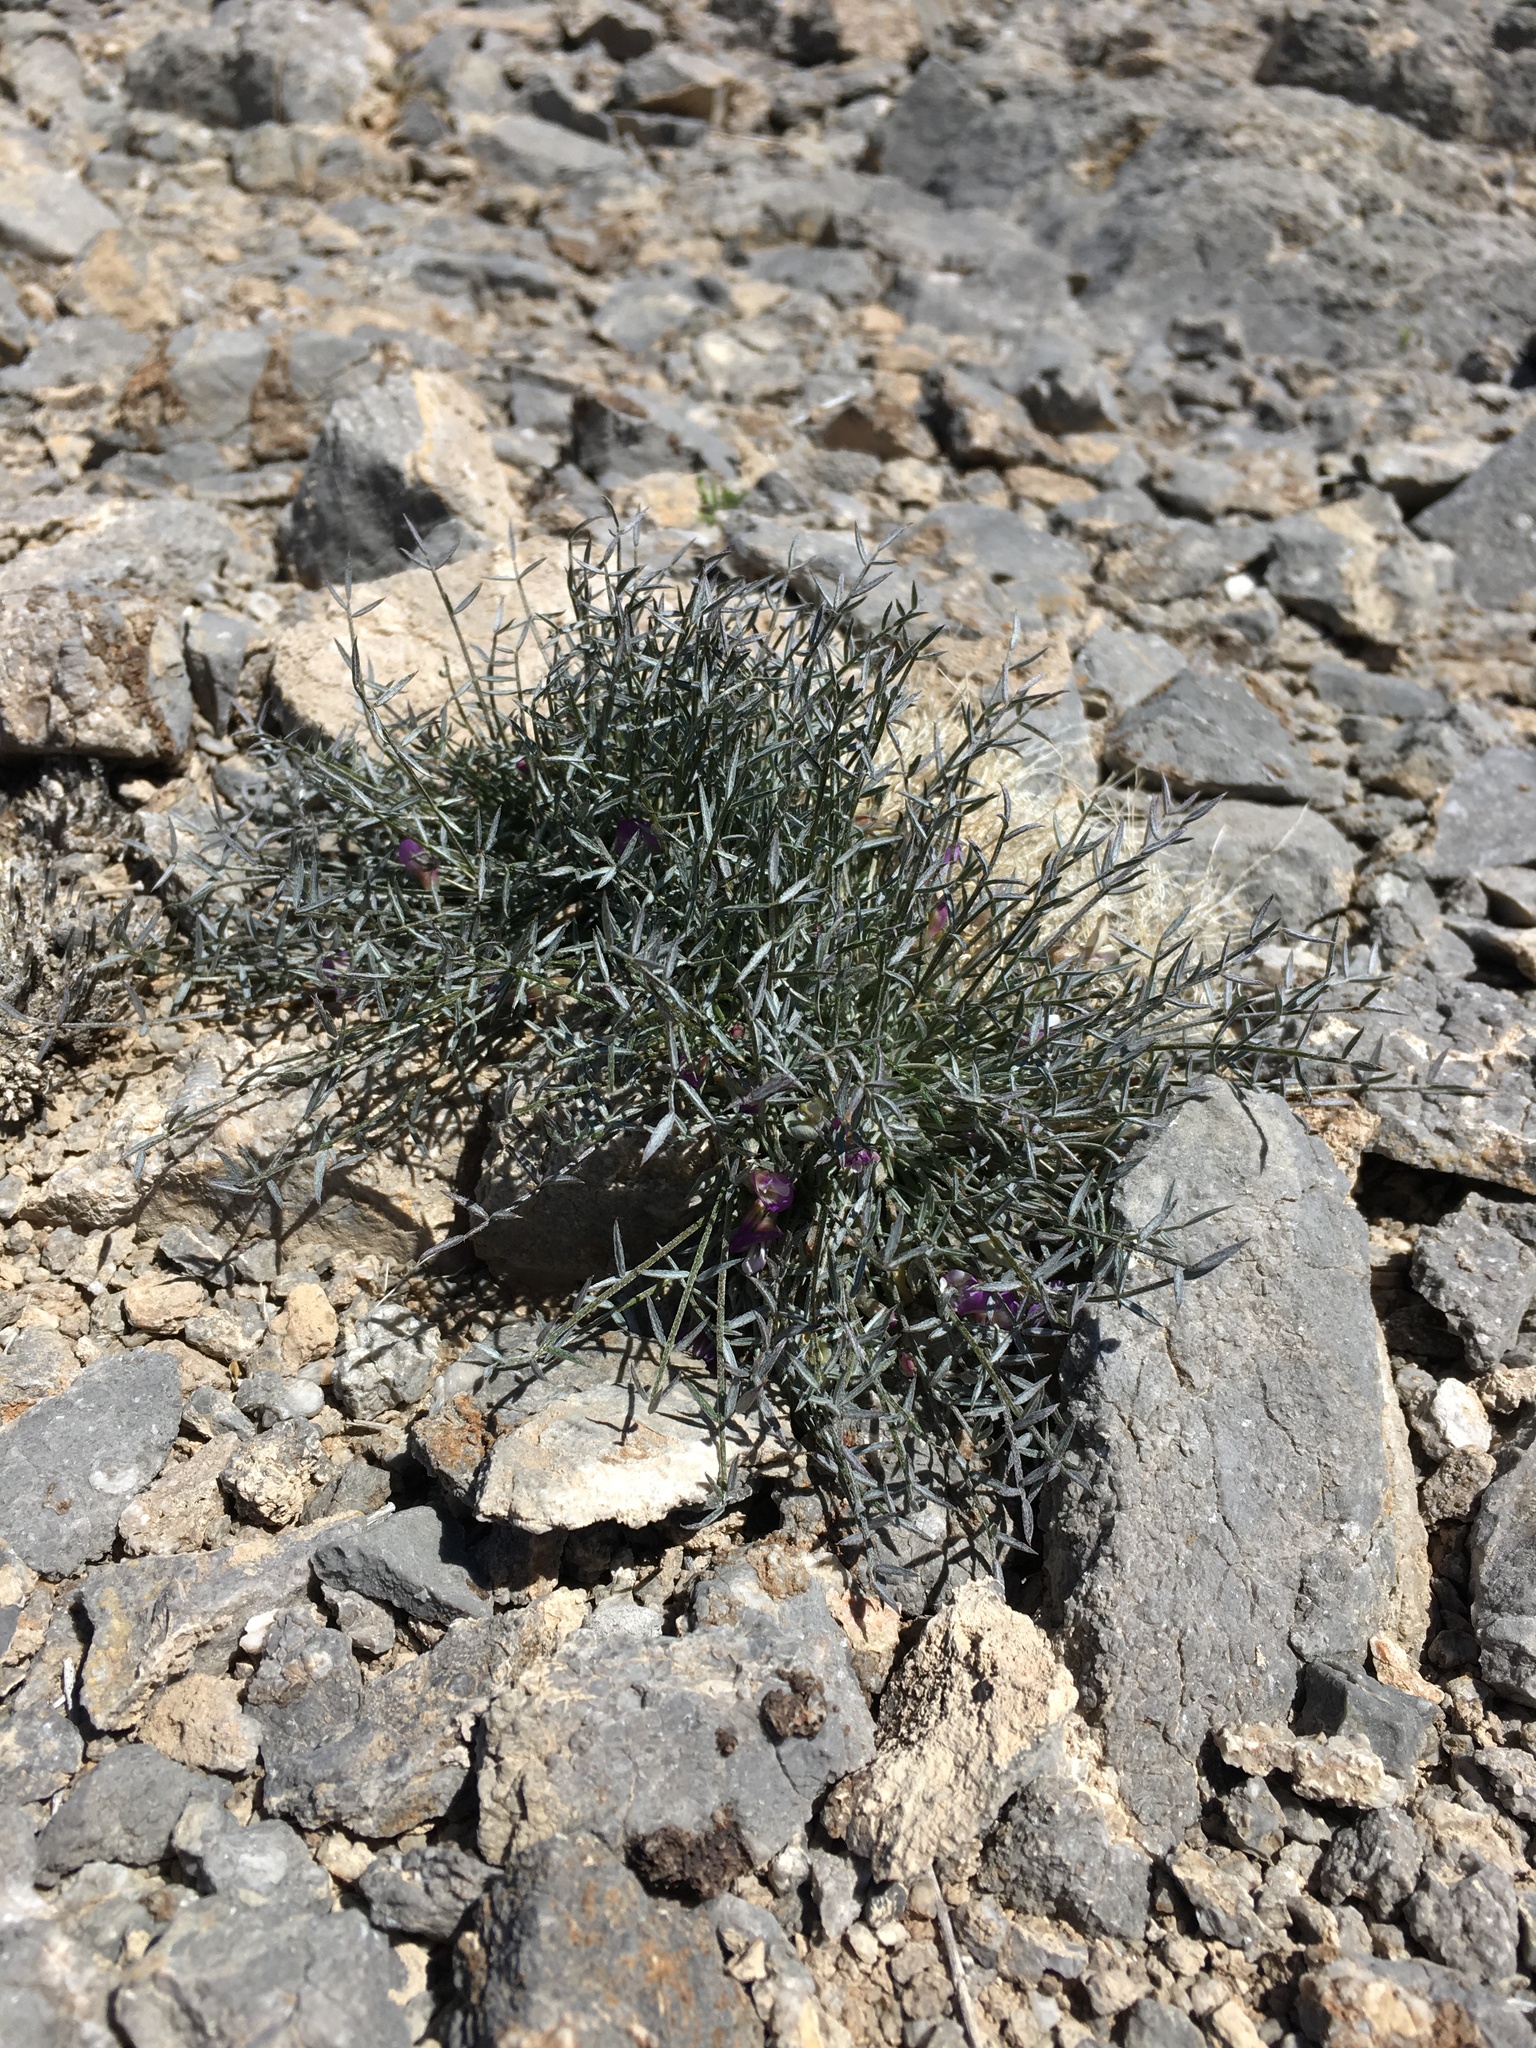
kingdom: Plantae
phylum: Tracheophyta
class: Magnoliopsida
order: Fabales
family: Fabaceae
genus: Astragalus
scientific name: Astragalus panamintensis
